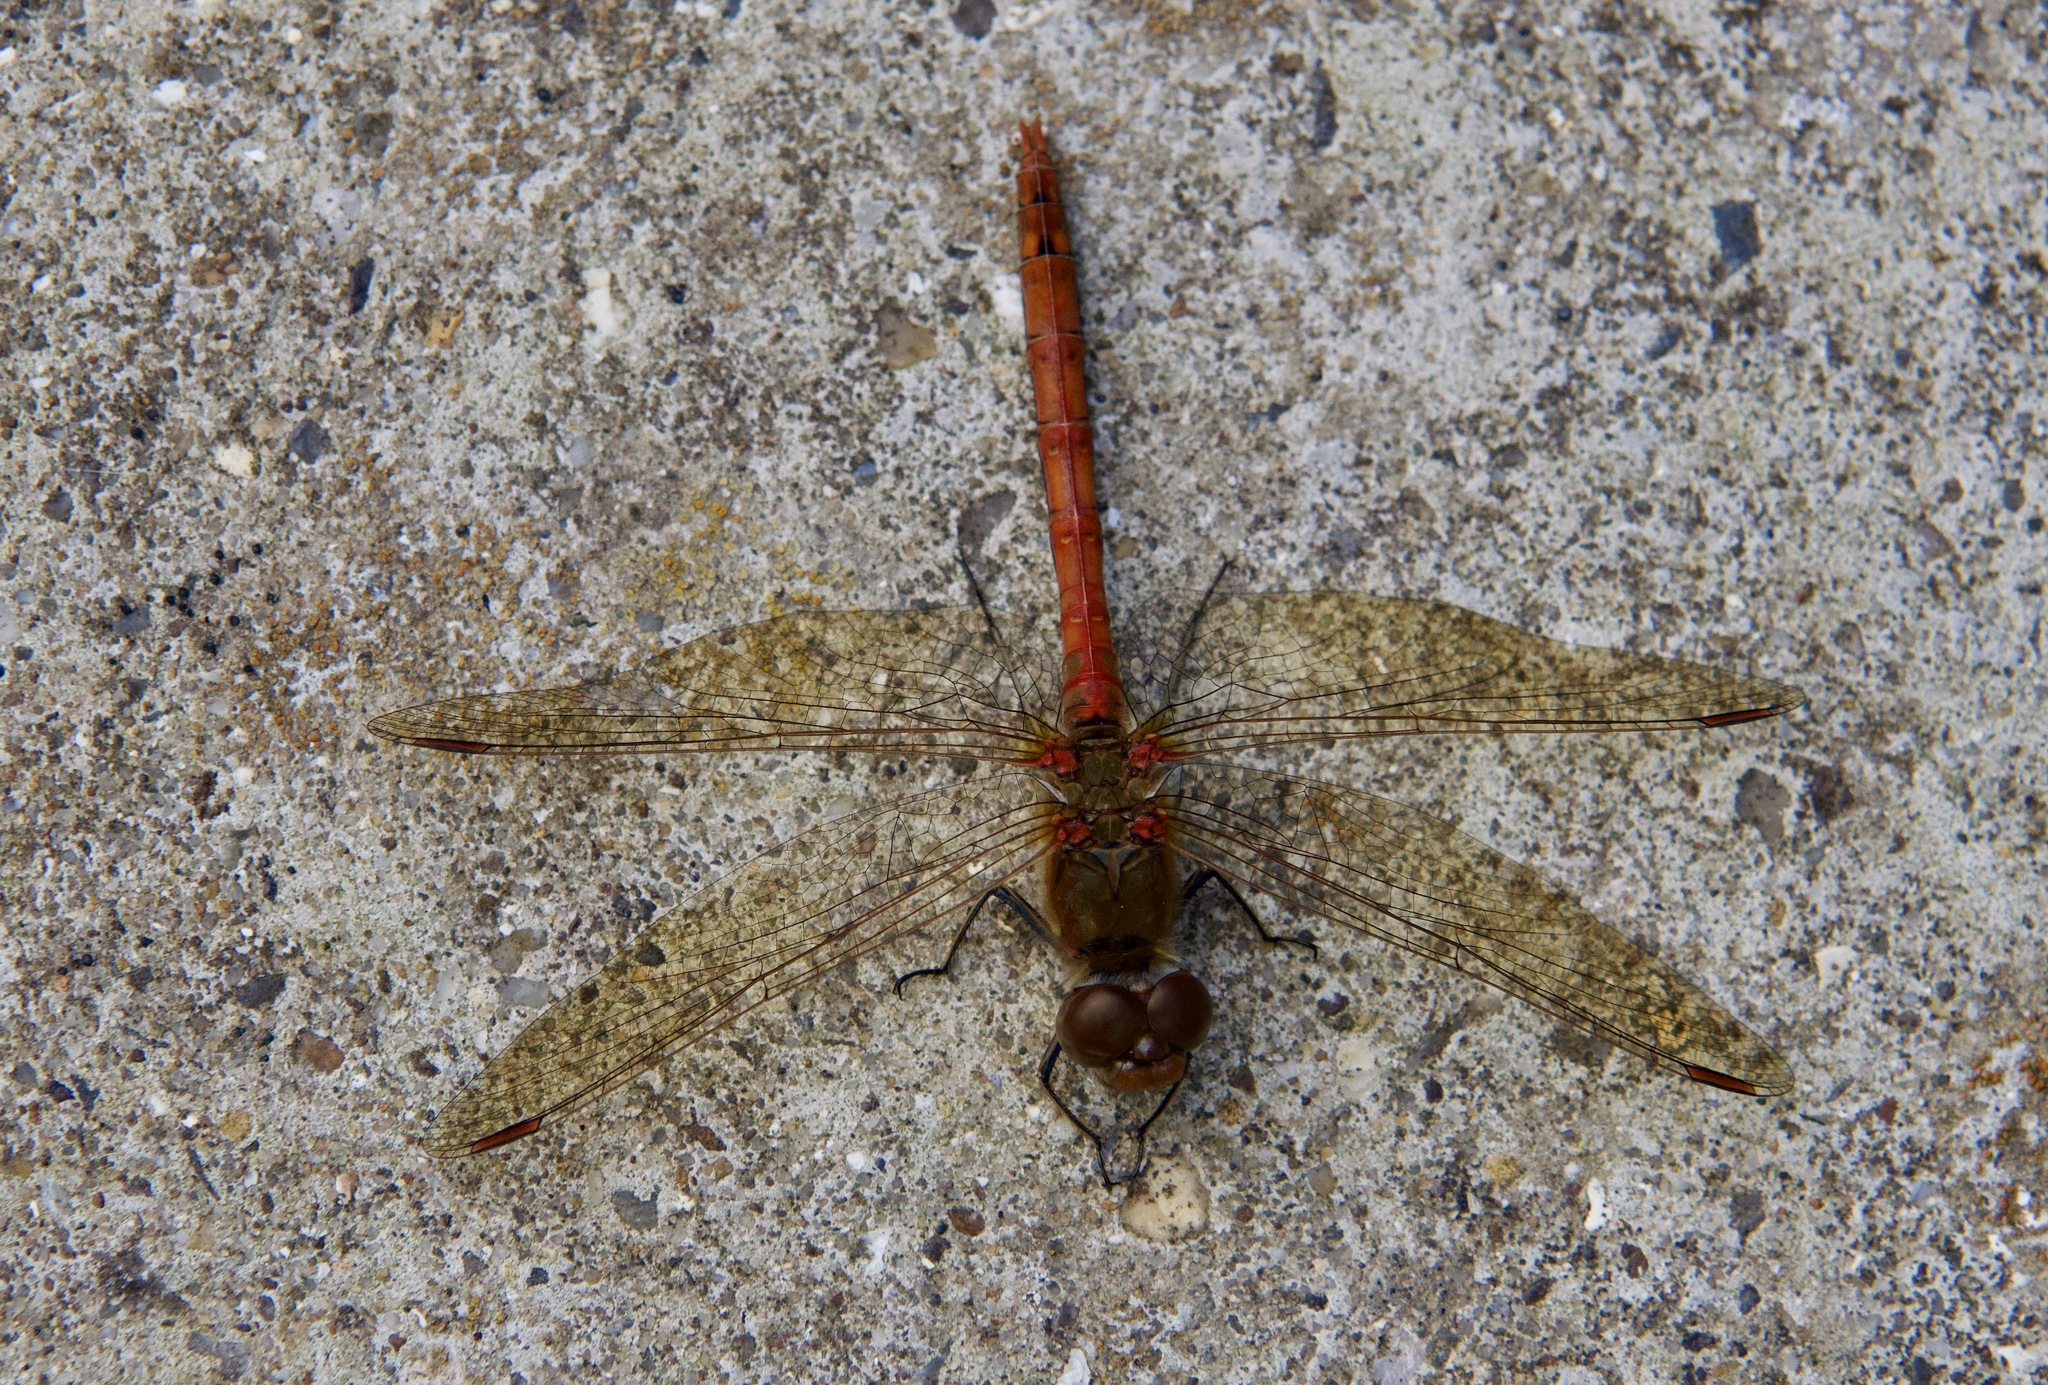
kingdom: Animalia
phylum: Arthropoda
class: Insecta
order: Odonata
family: Libellulidae
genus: Sympetrum
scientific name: Sympetrum striolatum
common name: Common darter
